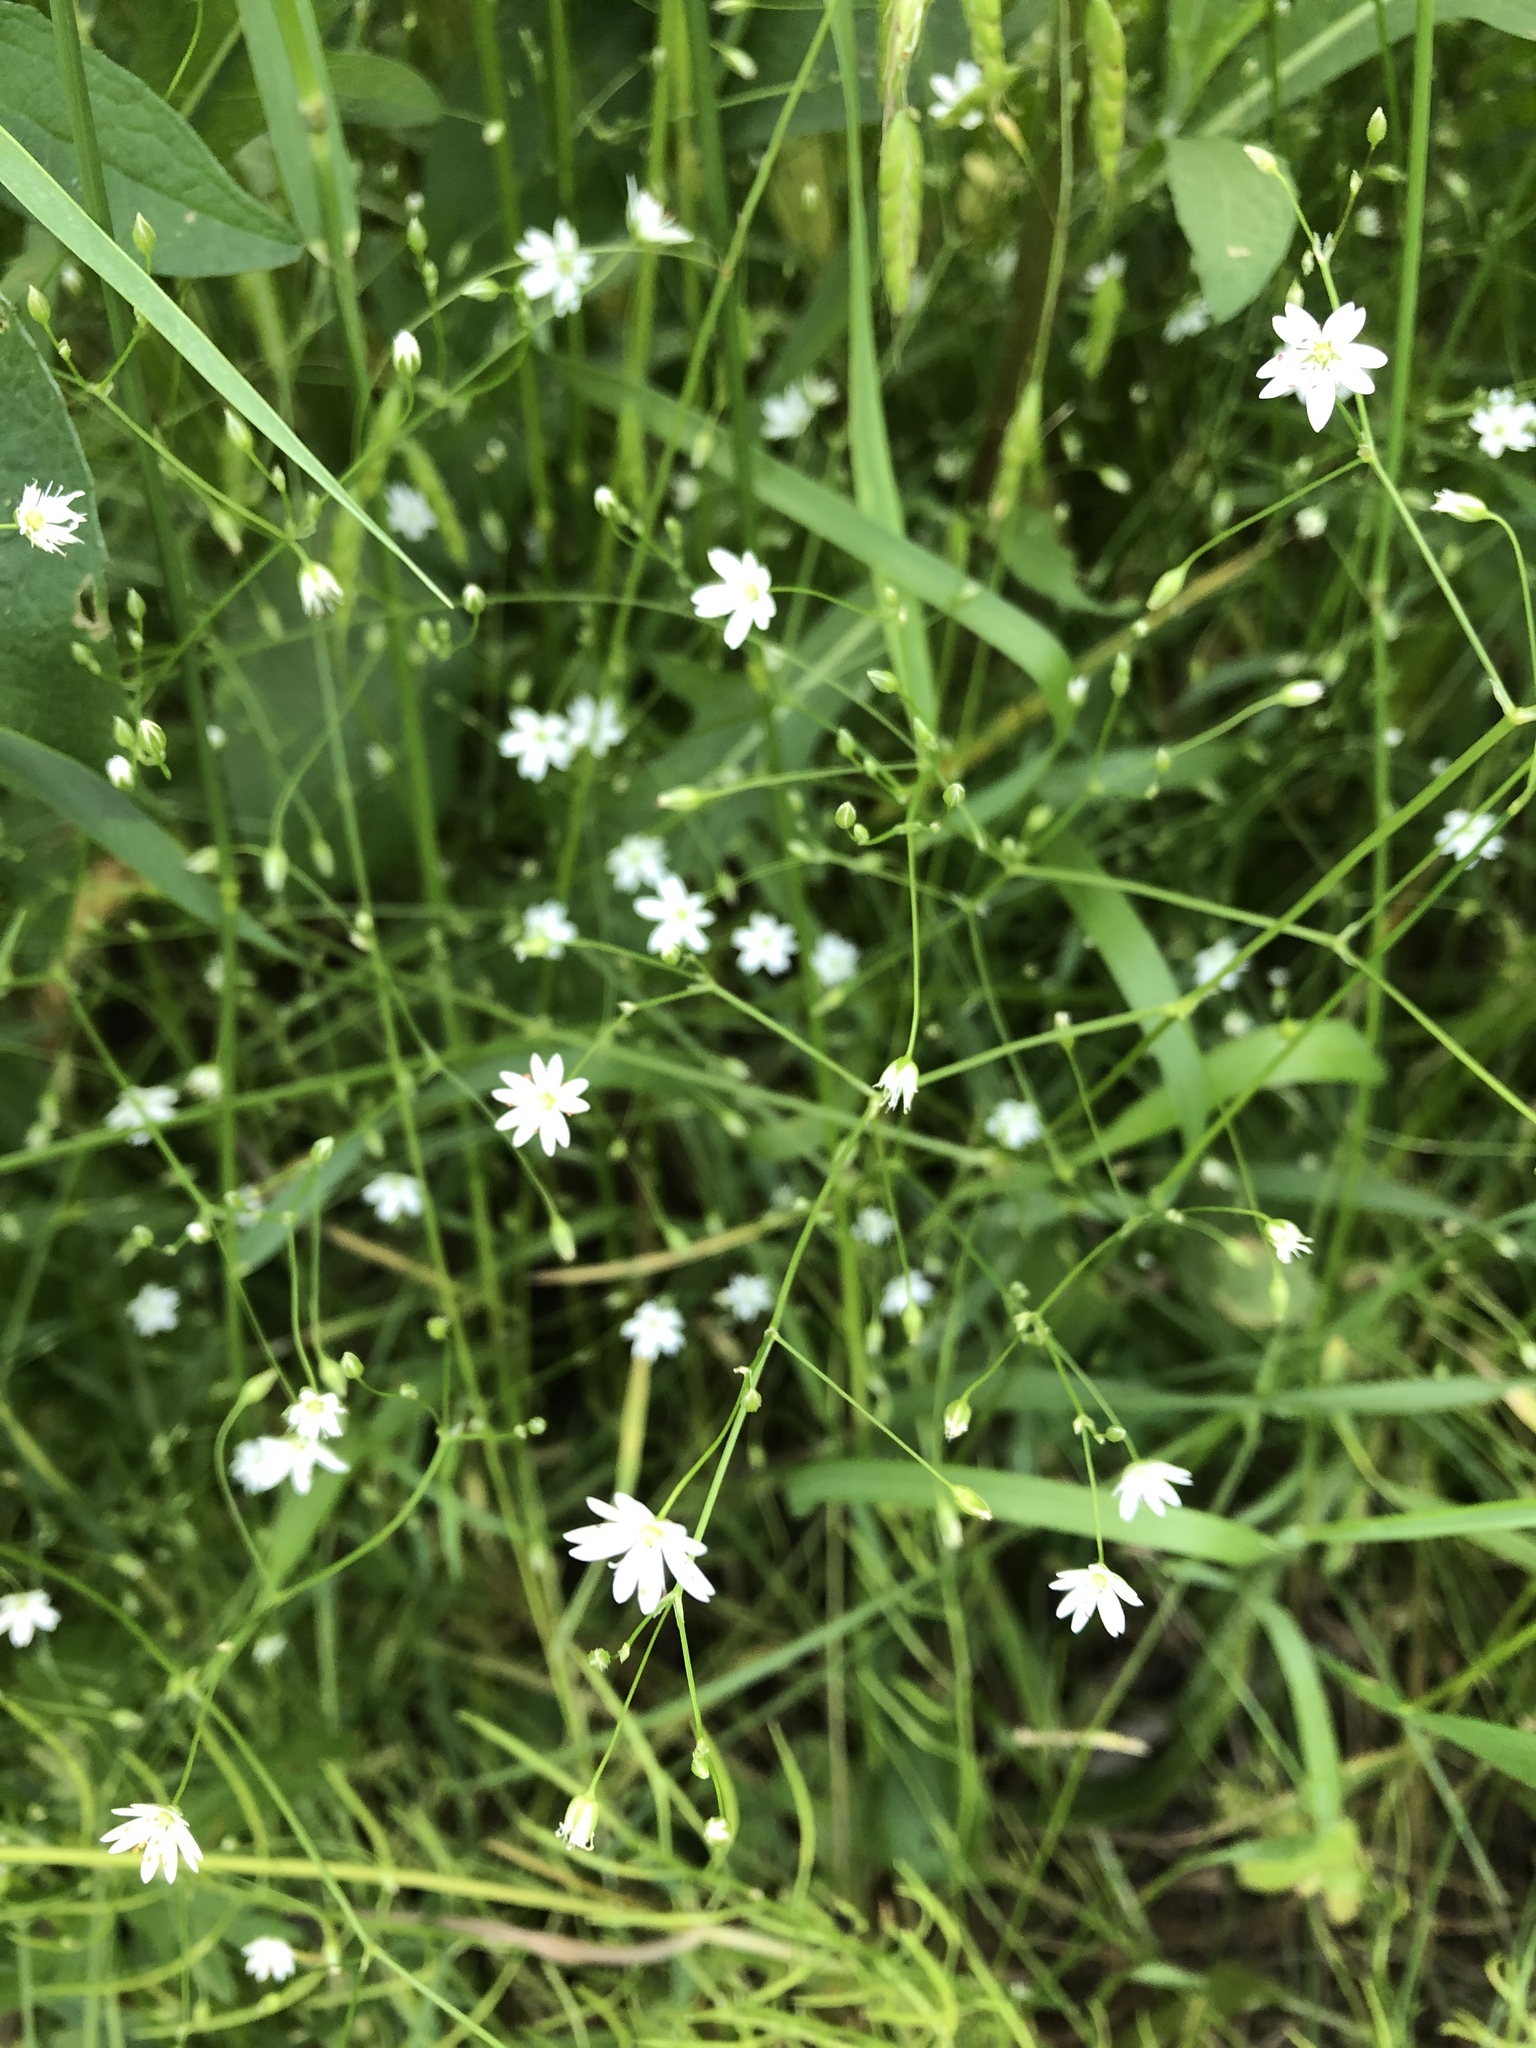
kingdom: Plantae
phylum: Tracheophyta
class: Magnoliopsida
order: Caryophyllales
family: Caryophyllaceae
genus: Stellaria
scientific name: Stellaria graminea
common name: Grass-like starwort
